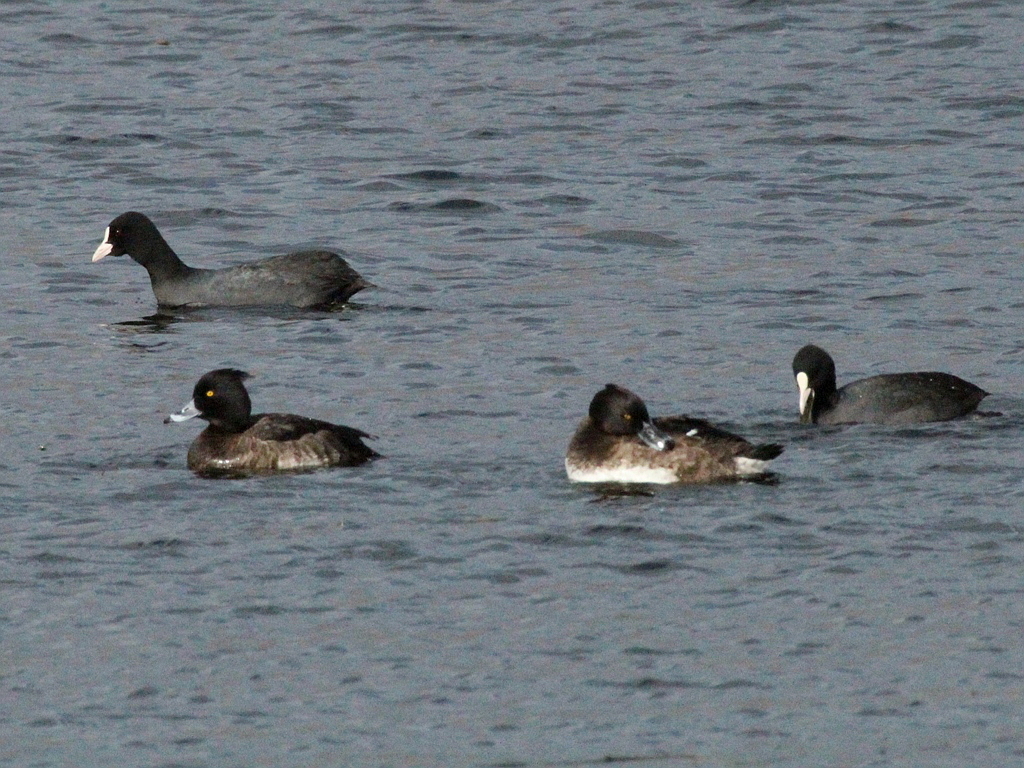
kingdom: Animalia
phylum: Chordata
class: Aves
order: Anseriformes
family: Anatidae
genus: Aythya
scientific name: Aythya fuligula
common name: Tufted duck
